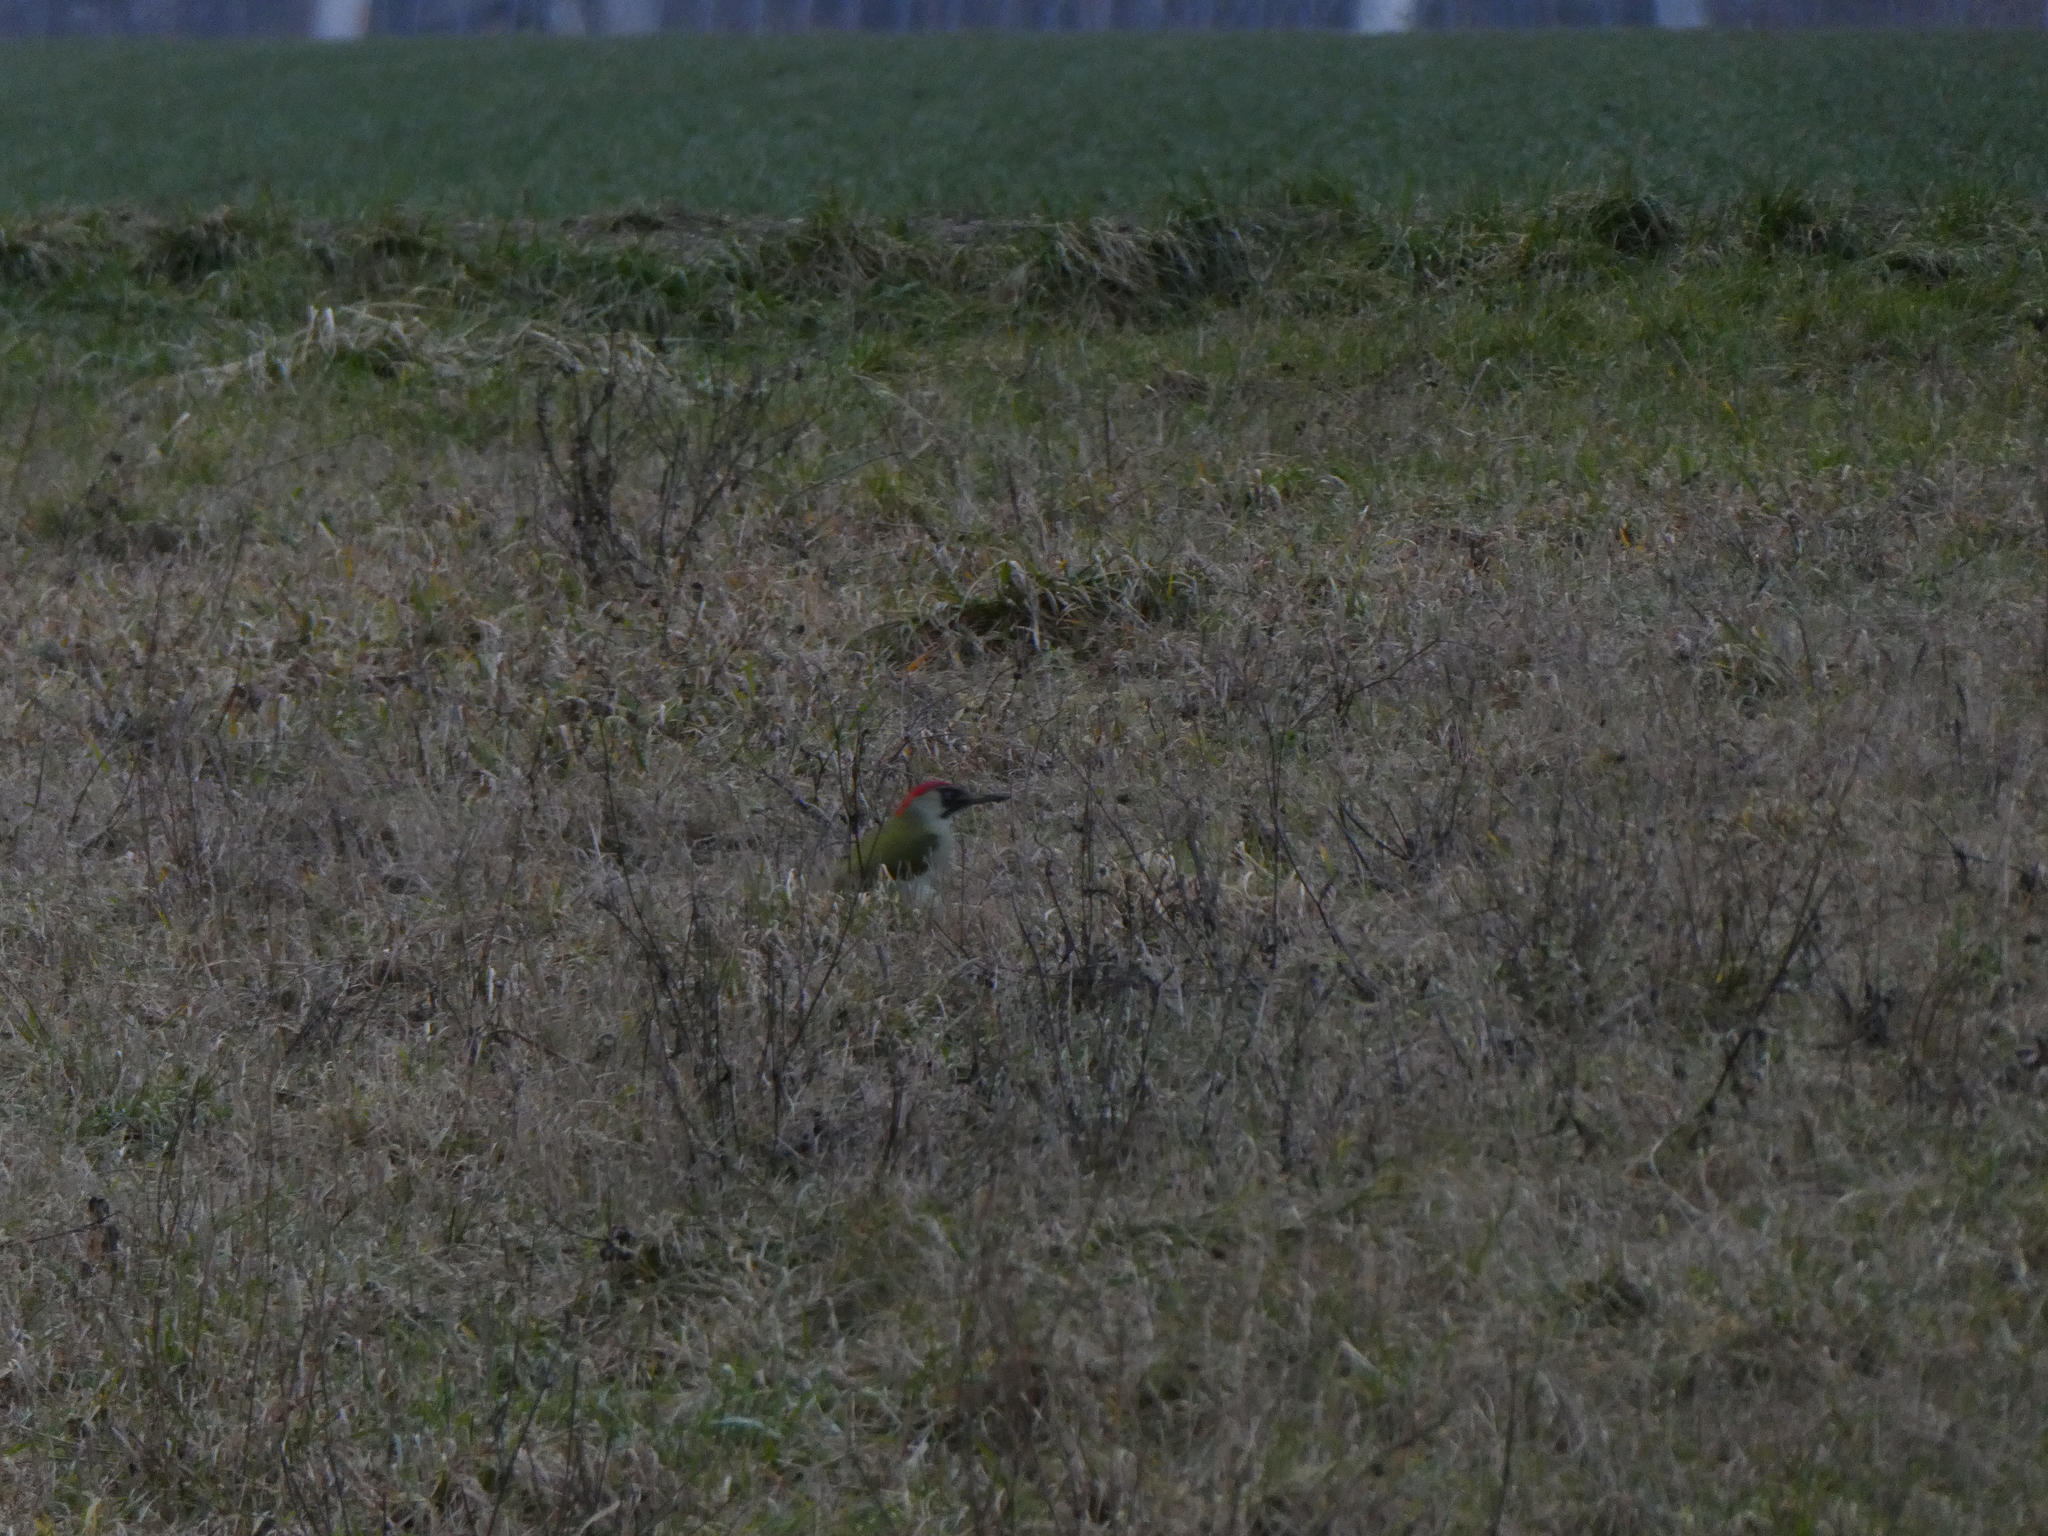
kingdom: Animalia
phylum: Chordata
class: Aves
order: Piciformes
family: Picidae
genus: Picus
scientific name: Picus viridis
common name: European green woodpecker
